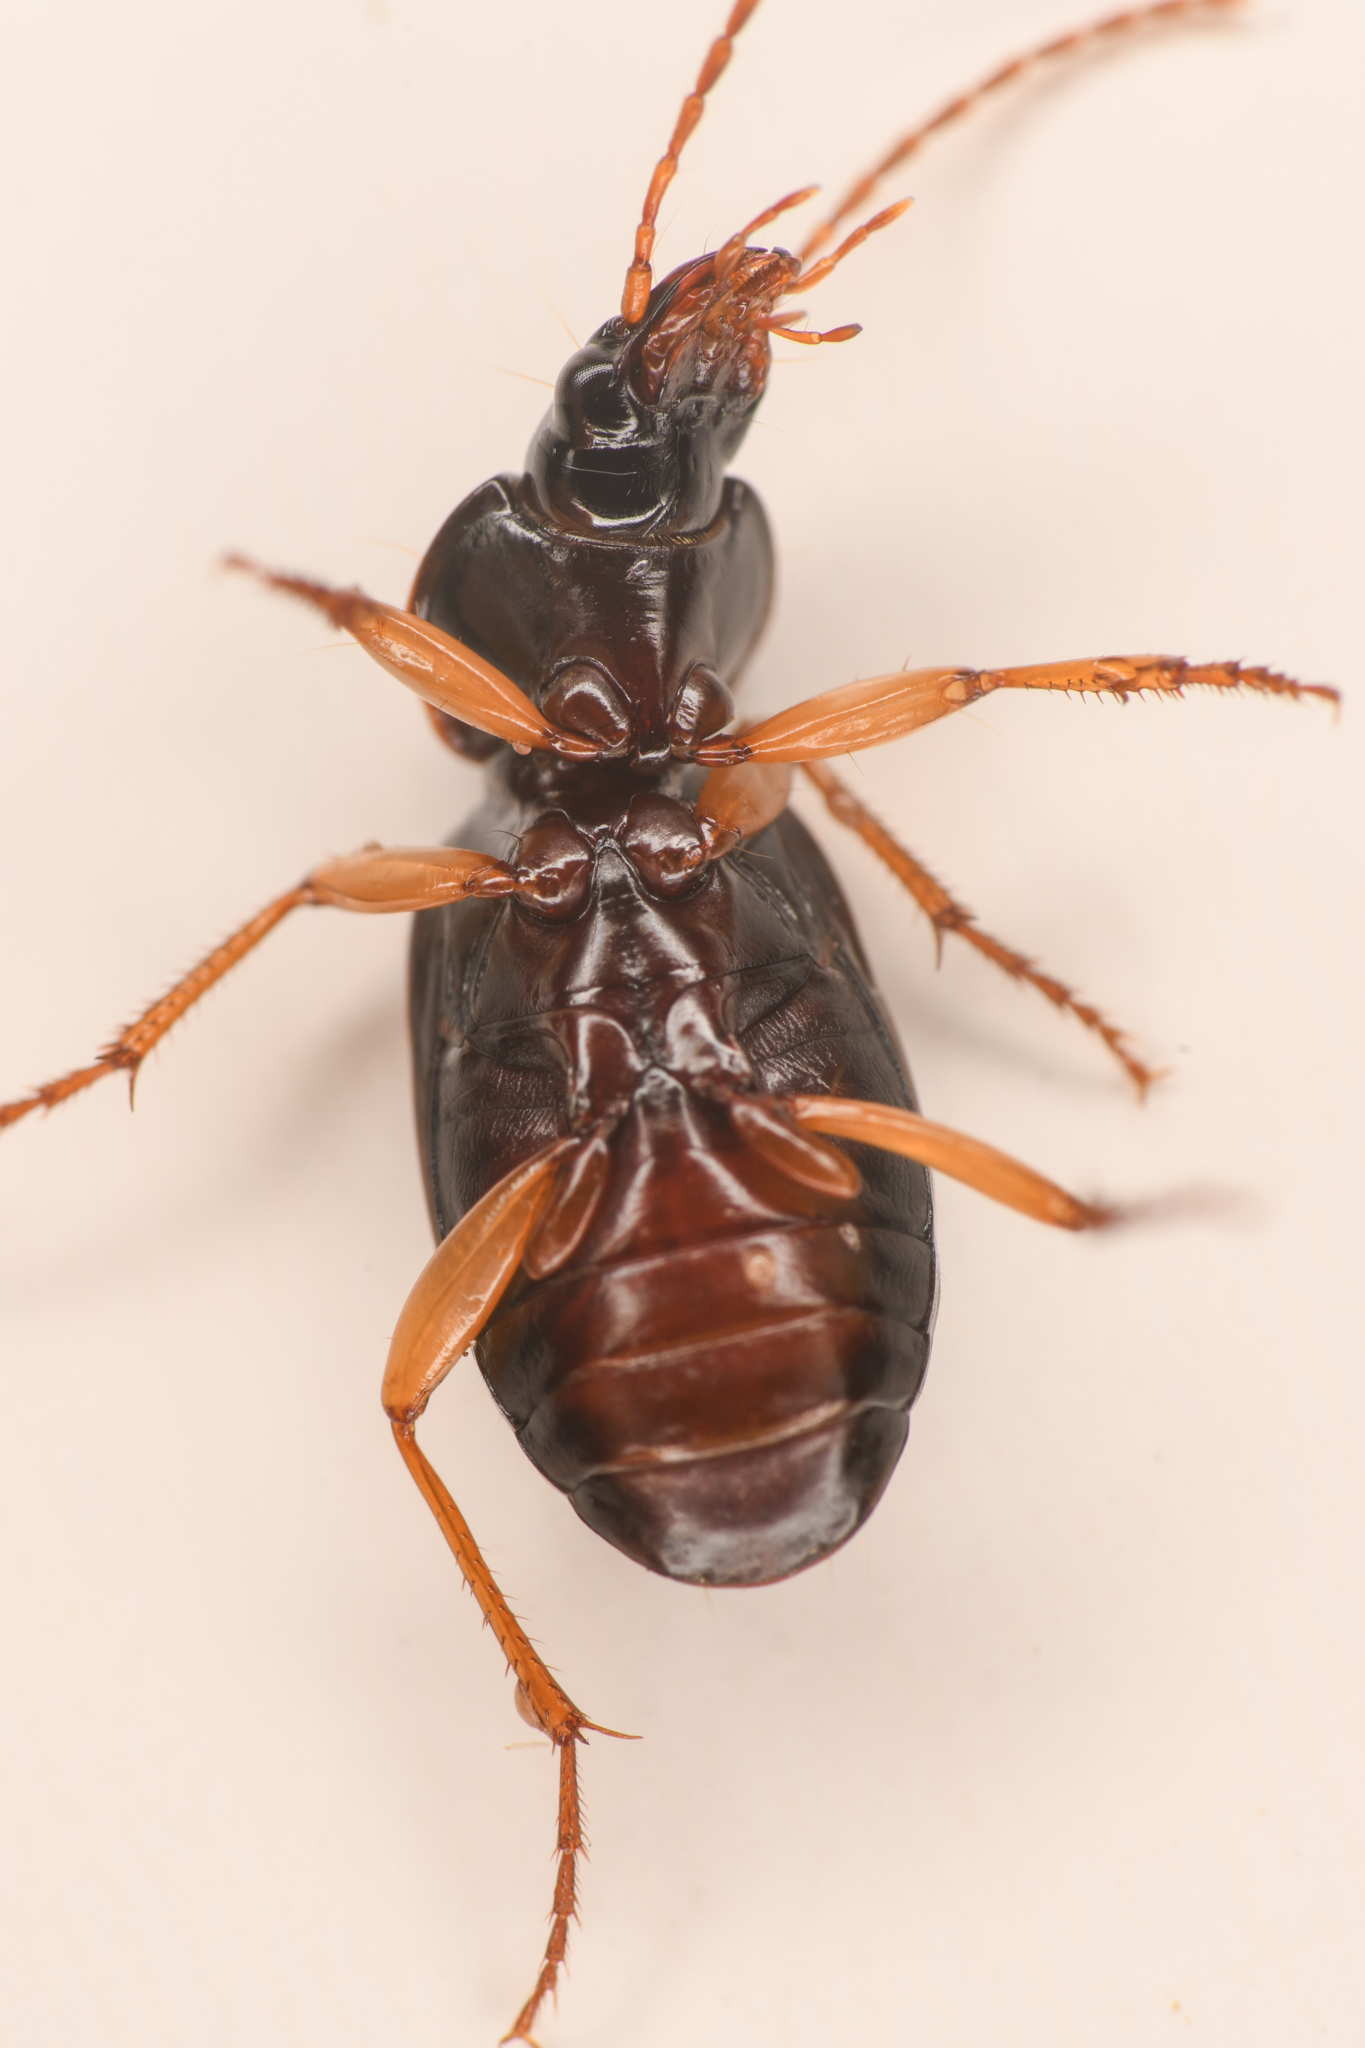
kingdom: Animalia
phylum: Arthropoda
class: Insecta
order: Coleoptera
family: Carabidae
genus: Synuchus
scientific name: Synuchus impunctatus
